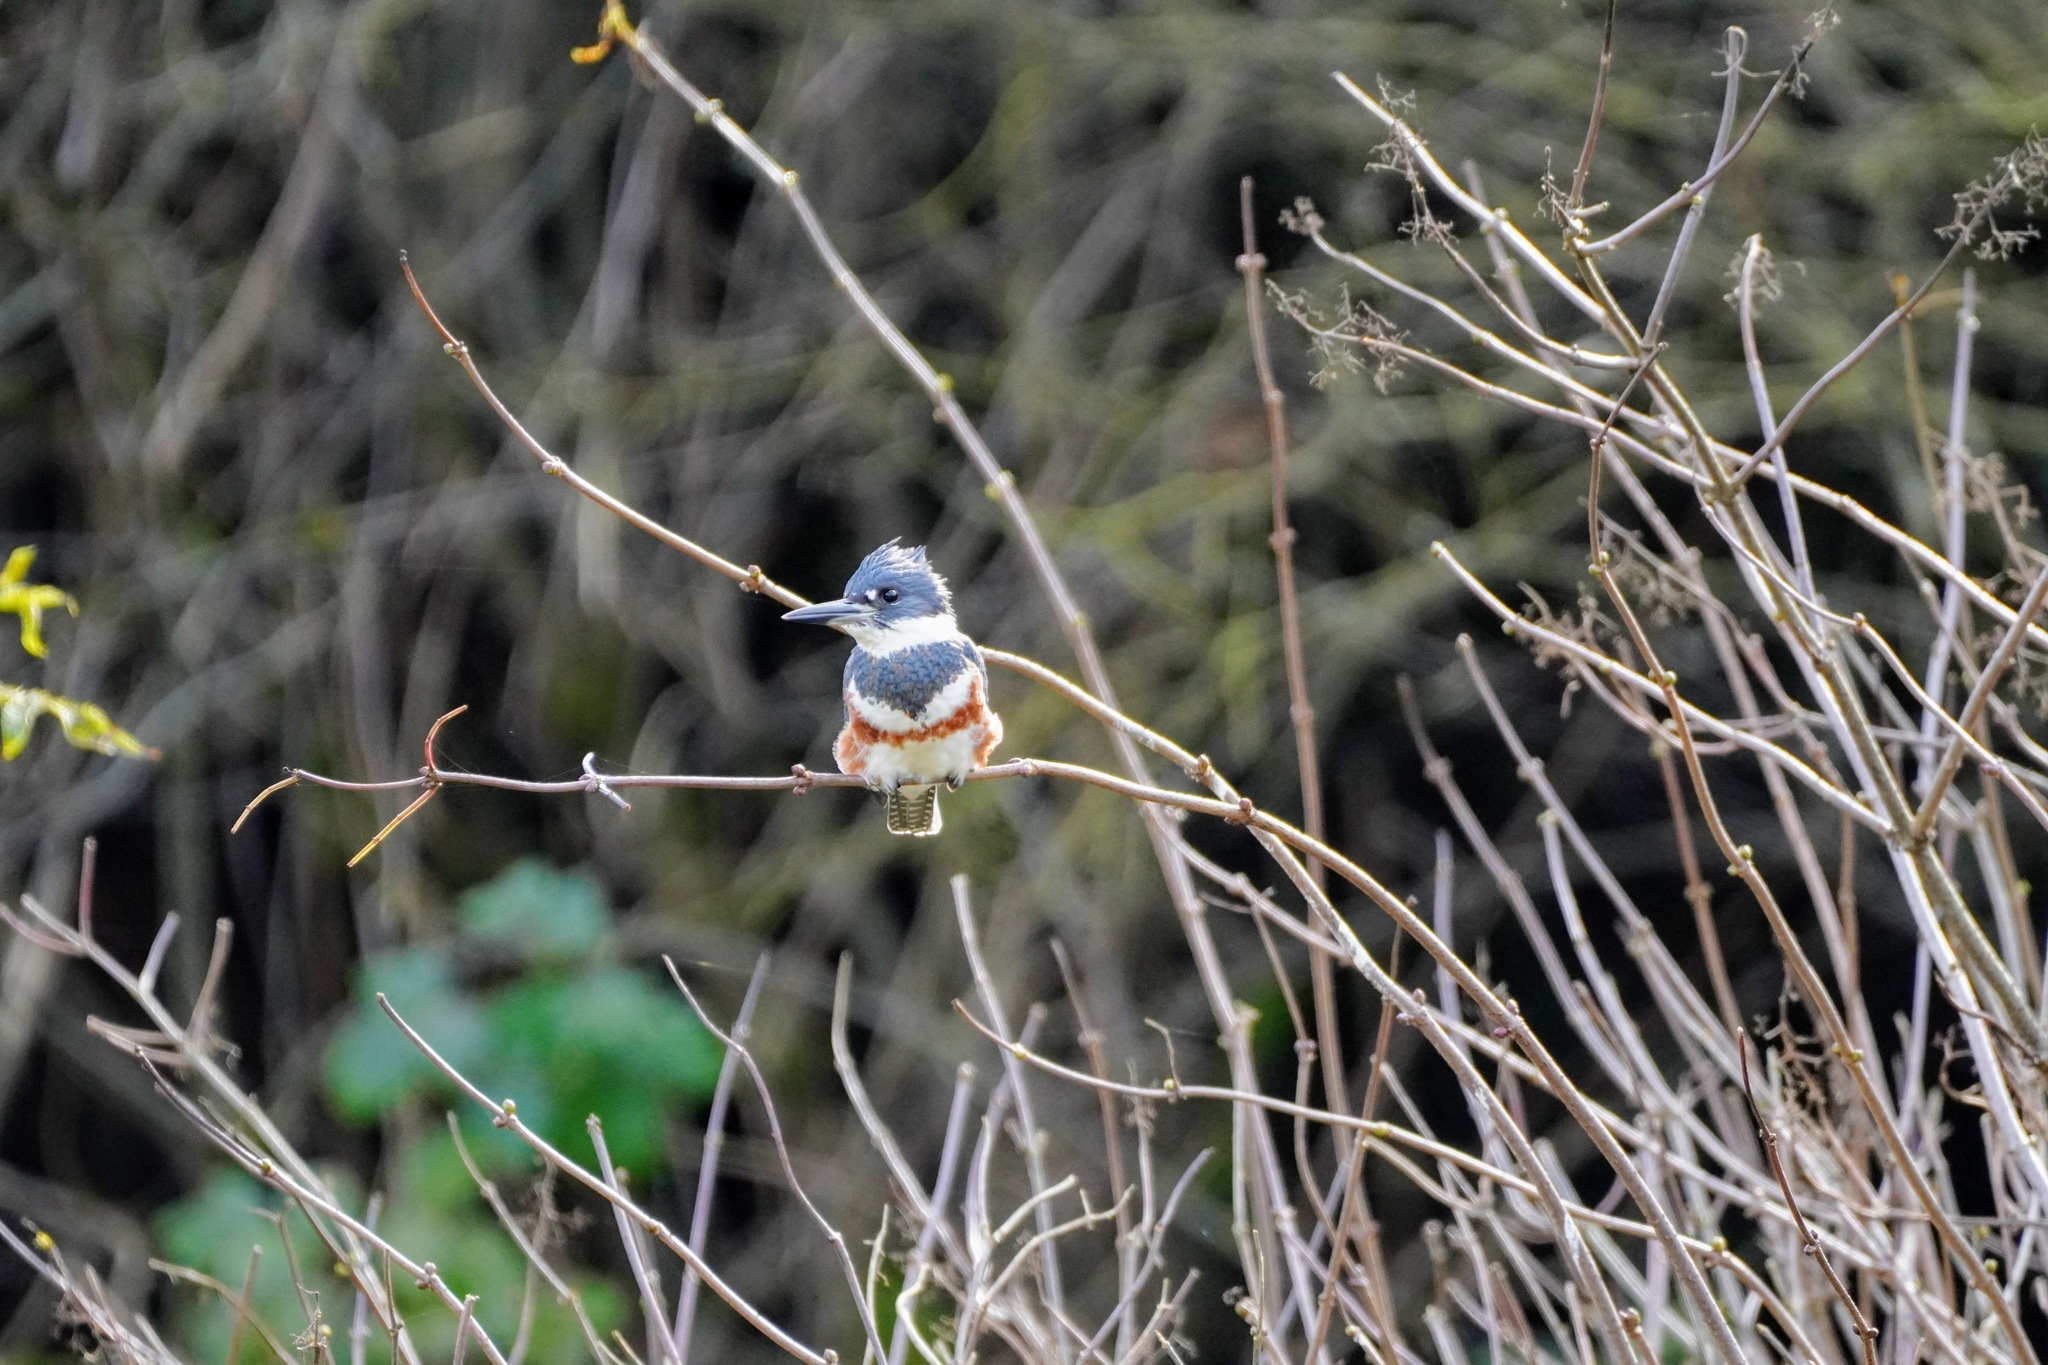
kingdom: Animalia
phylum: Chordata
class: Aves
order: Coraciiformes
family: Alcedinidae
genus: Megaceryle
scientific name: Megaceryle alcyon
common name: Belted kingfisher
